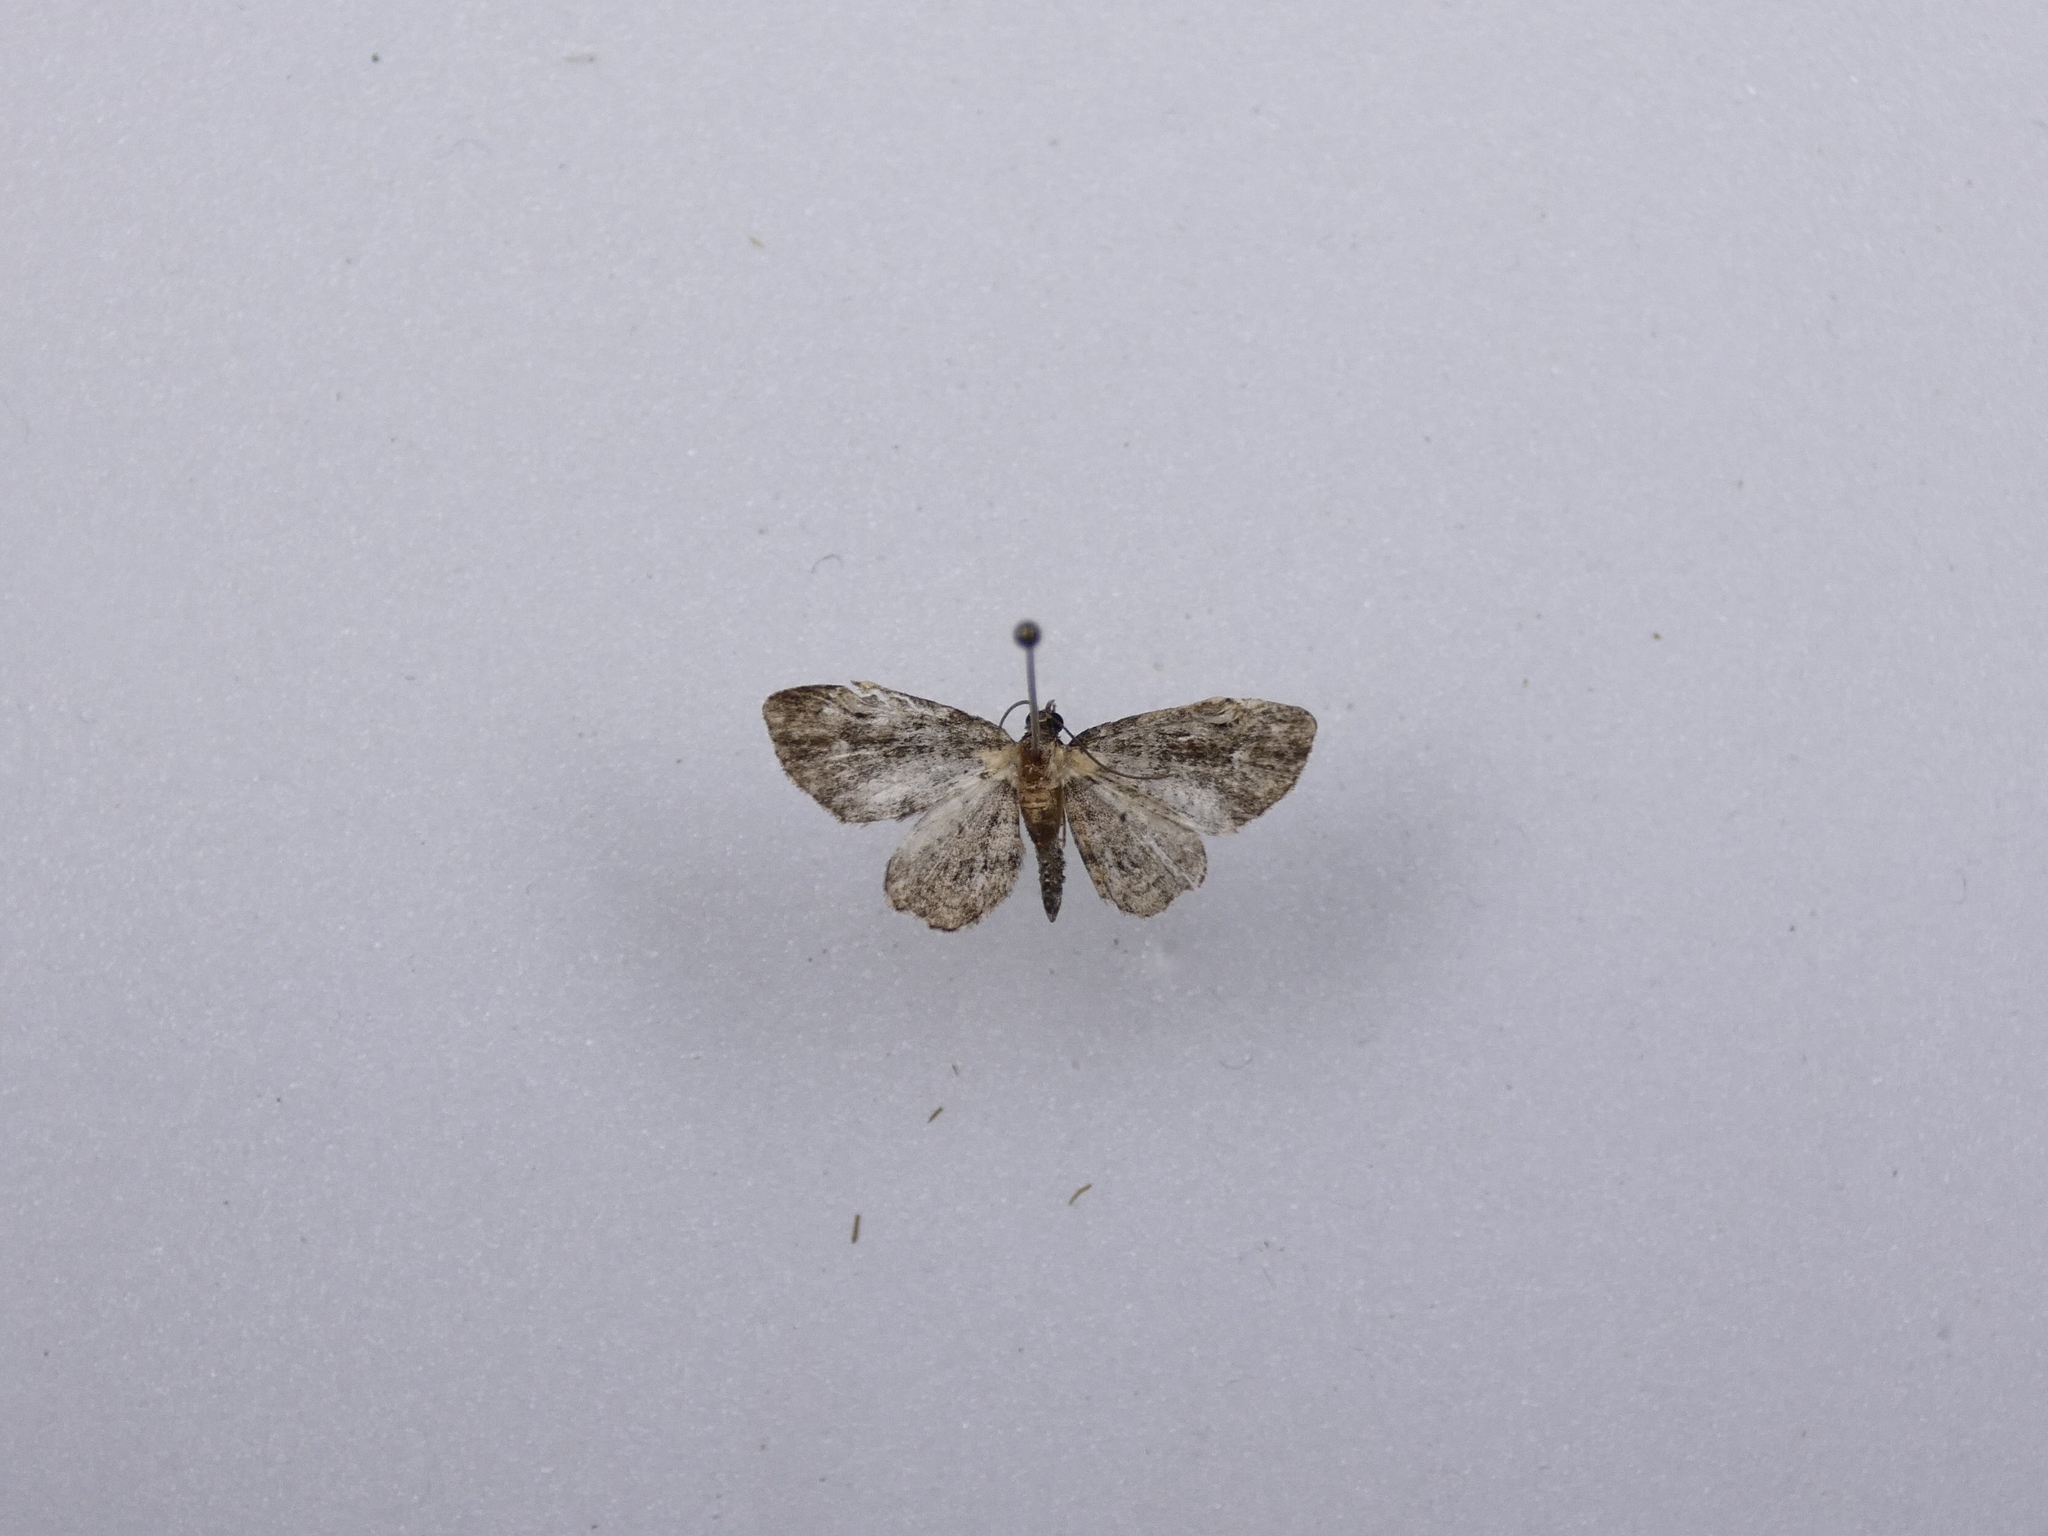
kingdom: Animalia
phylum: Arthropoda
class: Insecta
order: Lepidoptera
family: Geometridae
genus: Pasiphilodes
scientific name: Pasiphilodes testulata
